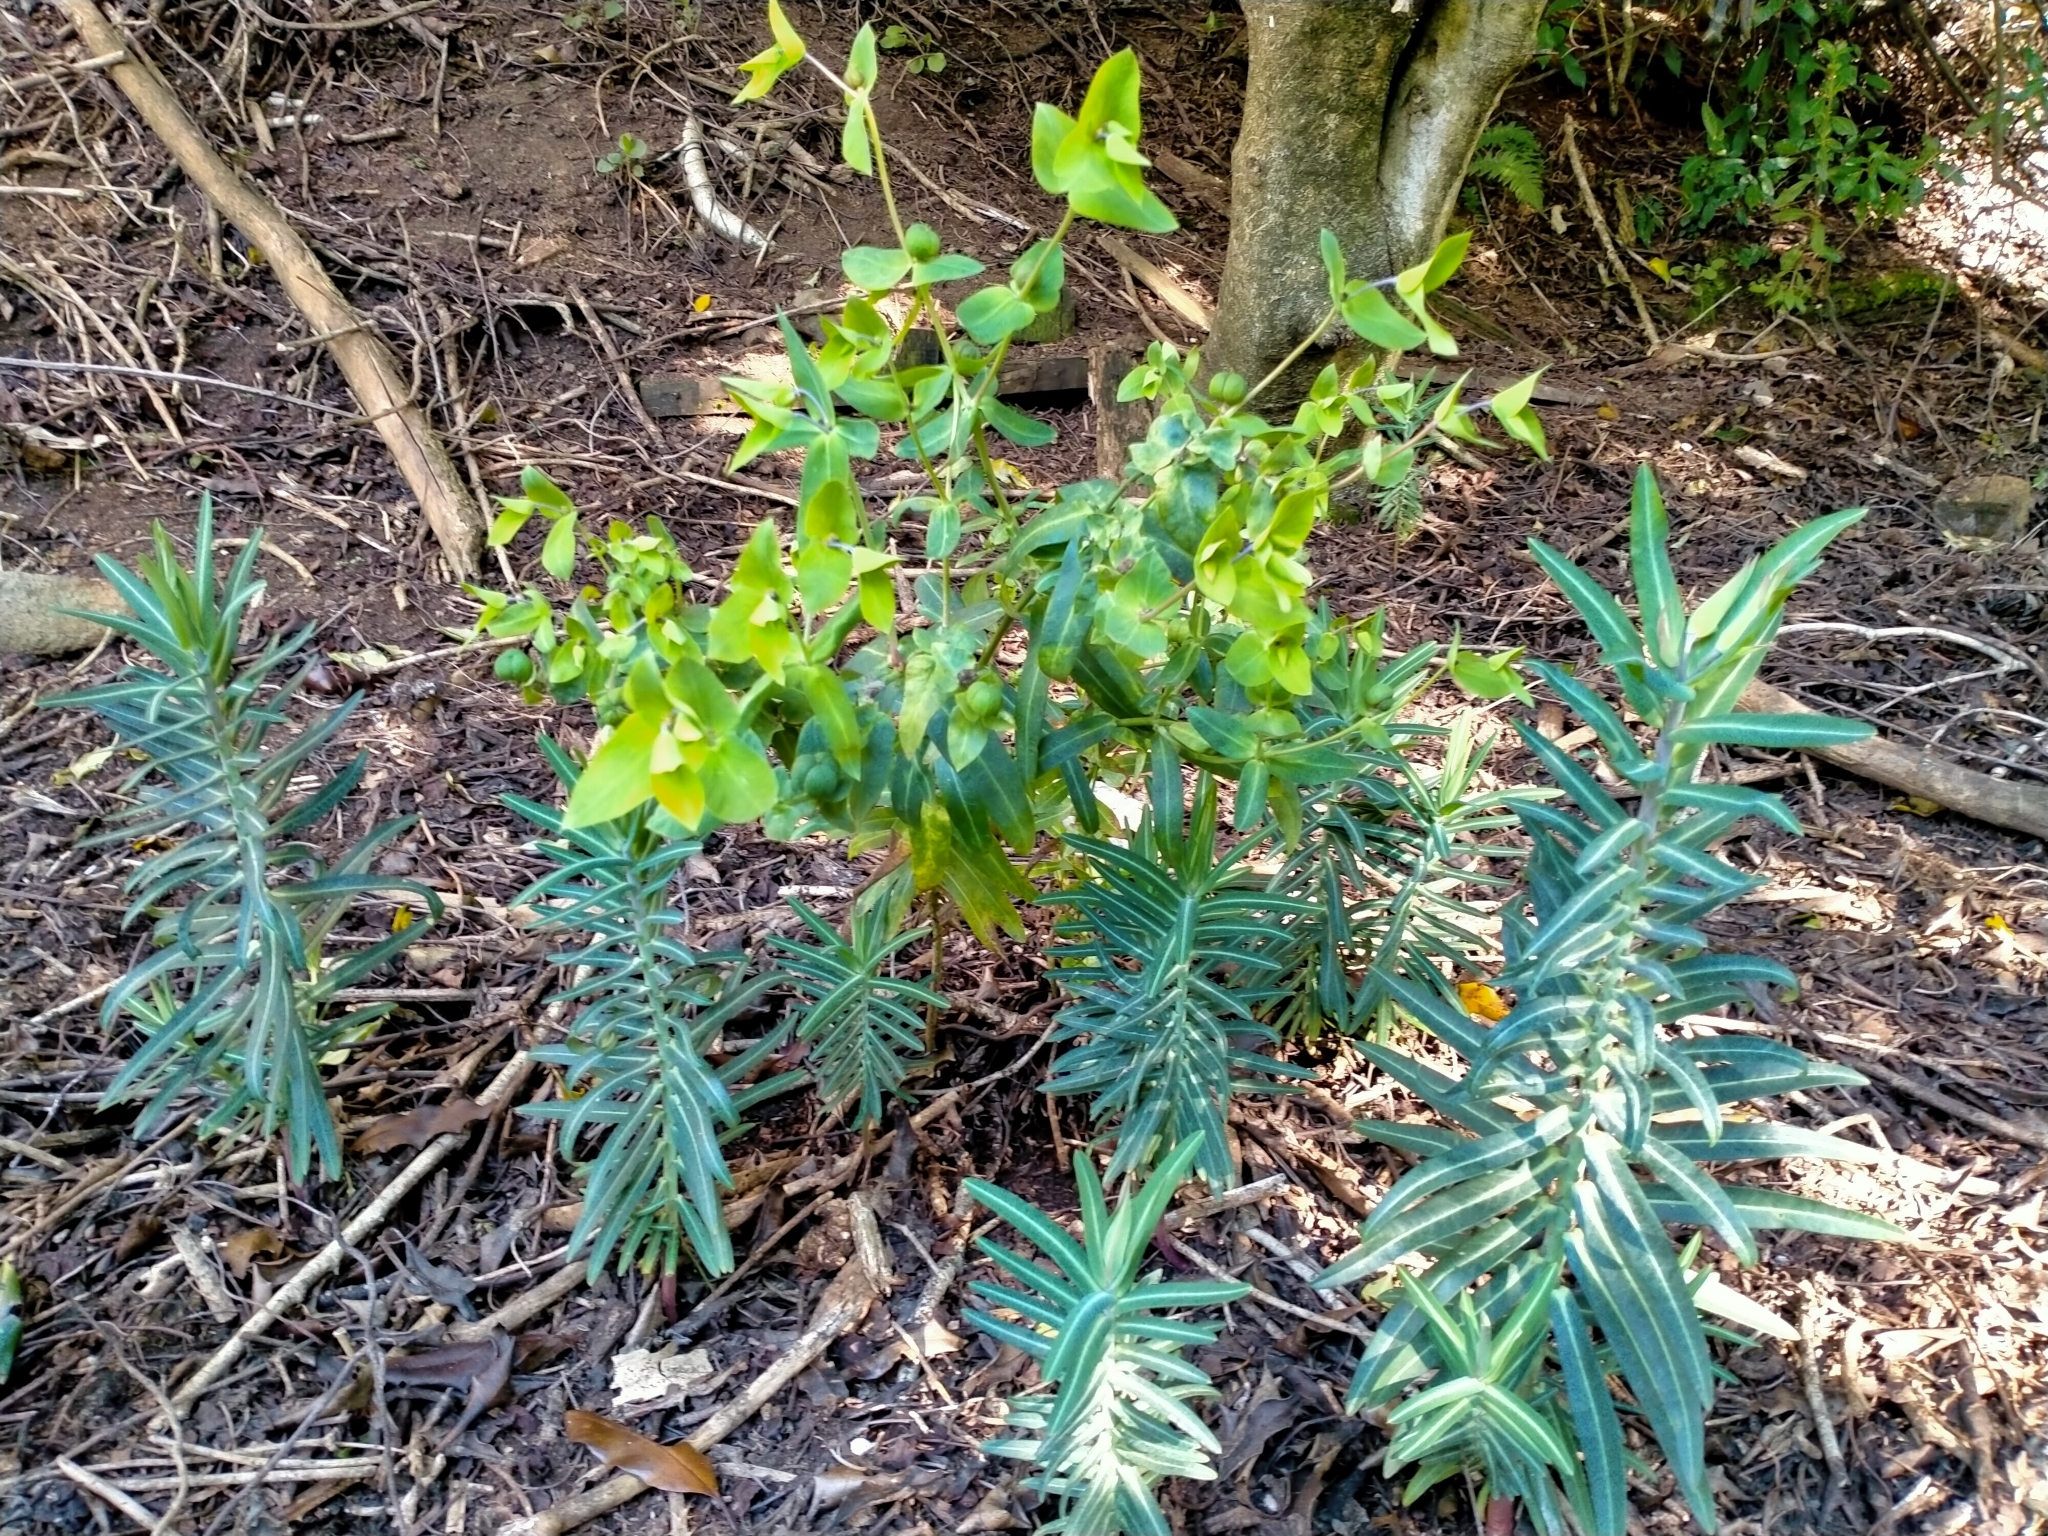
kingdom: Plantae
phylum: Tracheophyta
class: Magnoliopsida
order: Malpighiales
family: Euphorbiaceae
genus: Euphorbia
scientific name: Euphorbia lathyris
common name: Caper spurge
